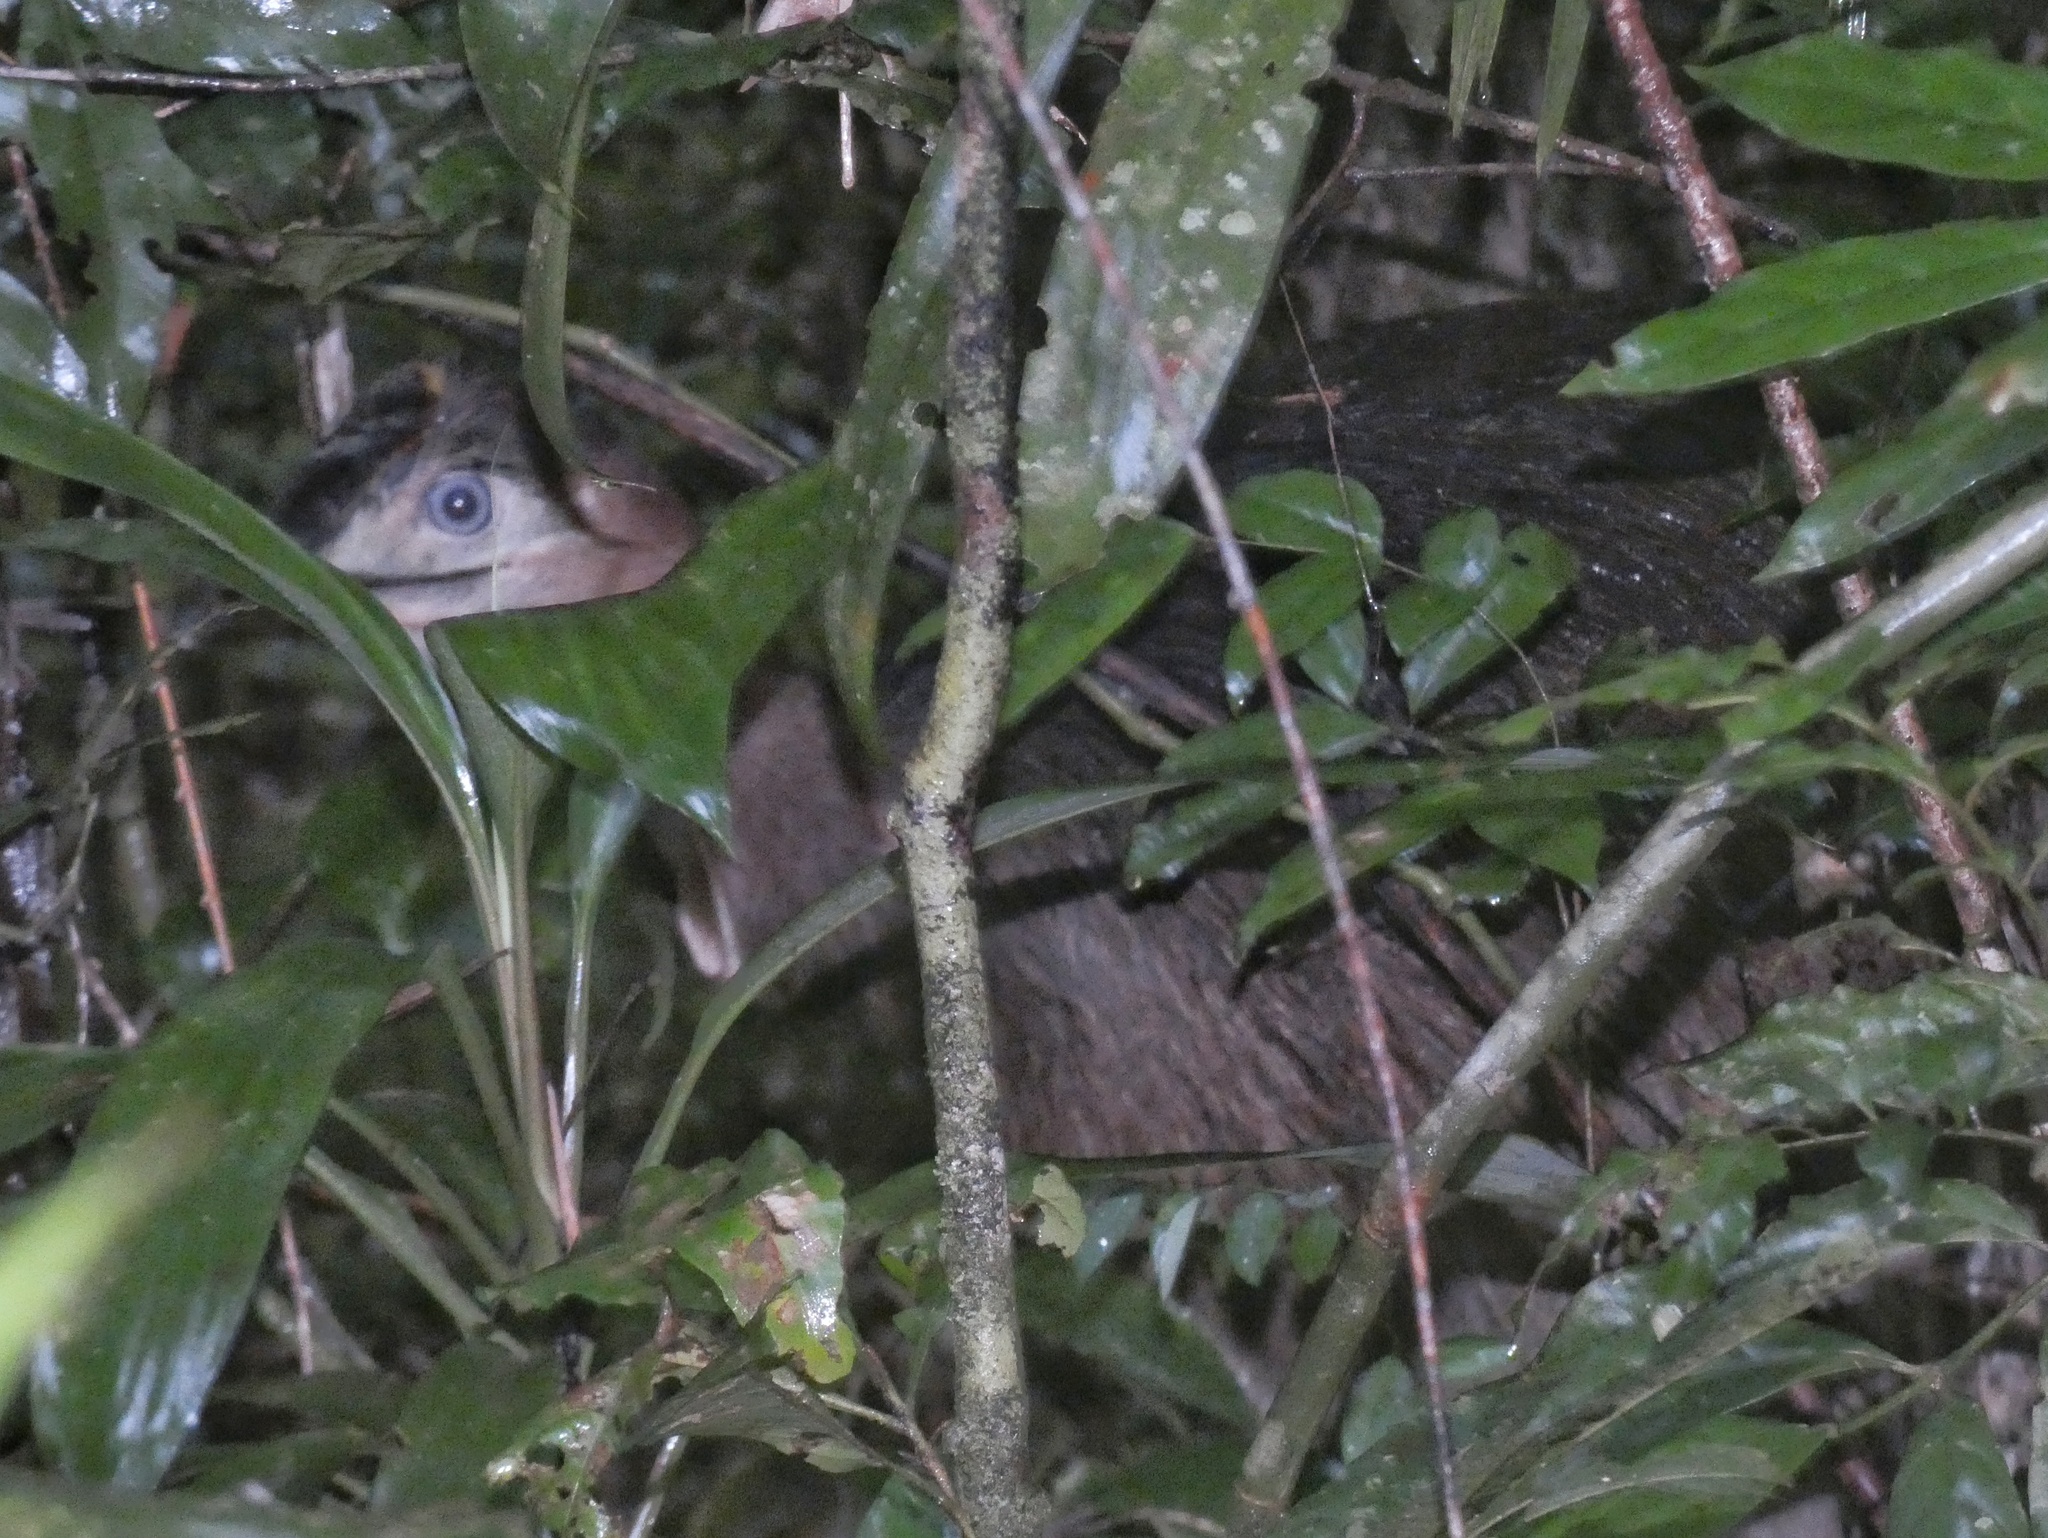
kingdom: Animalia
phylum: Chordata
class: Aves
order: Casuariiformes
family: Casuariidae
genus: Casuarius
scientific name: Casuarius casuarius
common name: Southern cassowary
